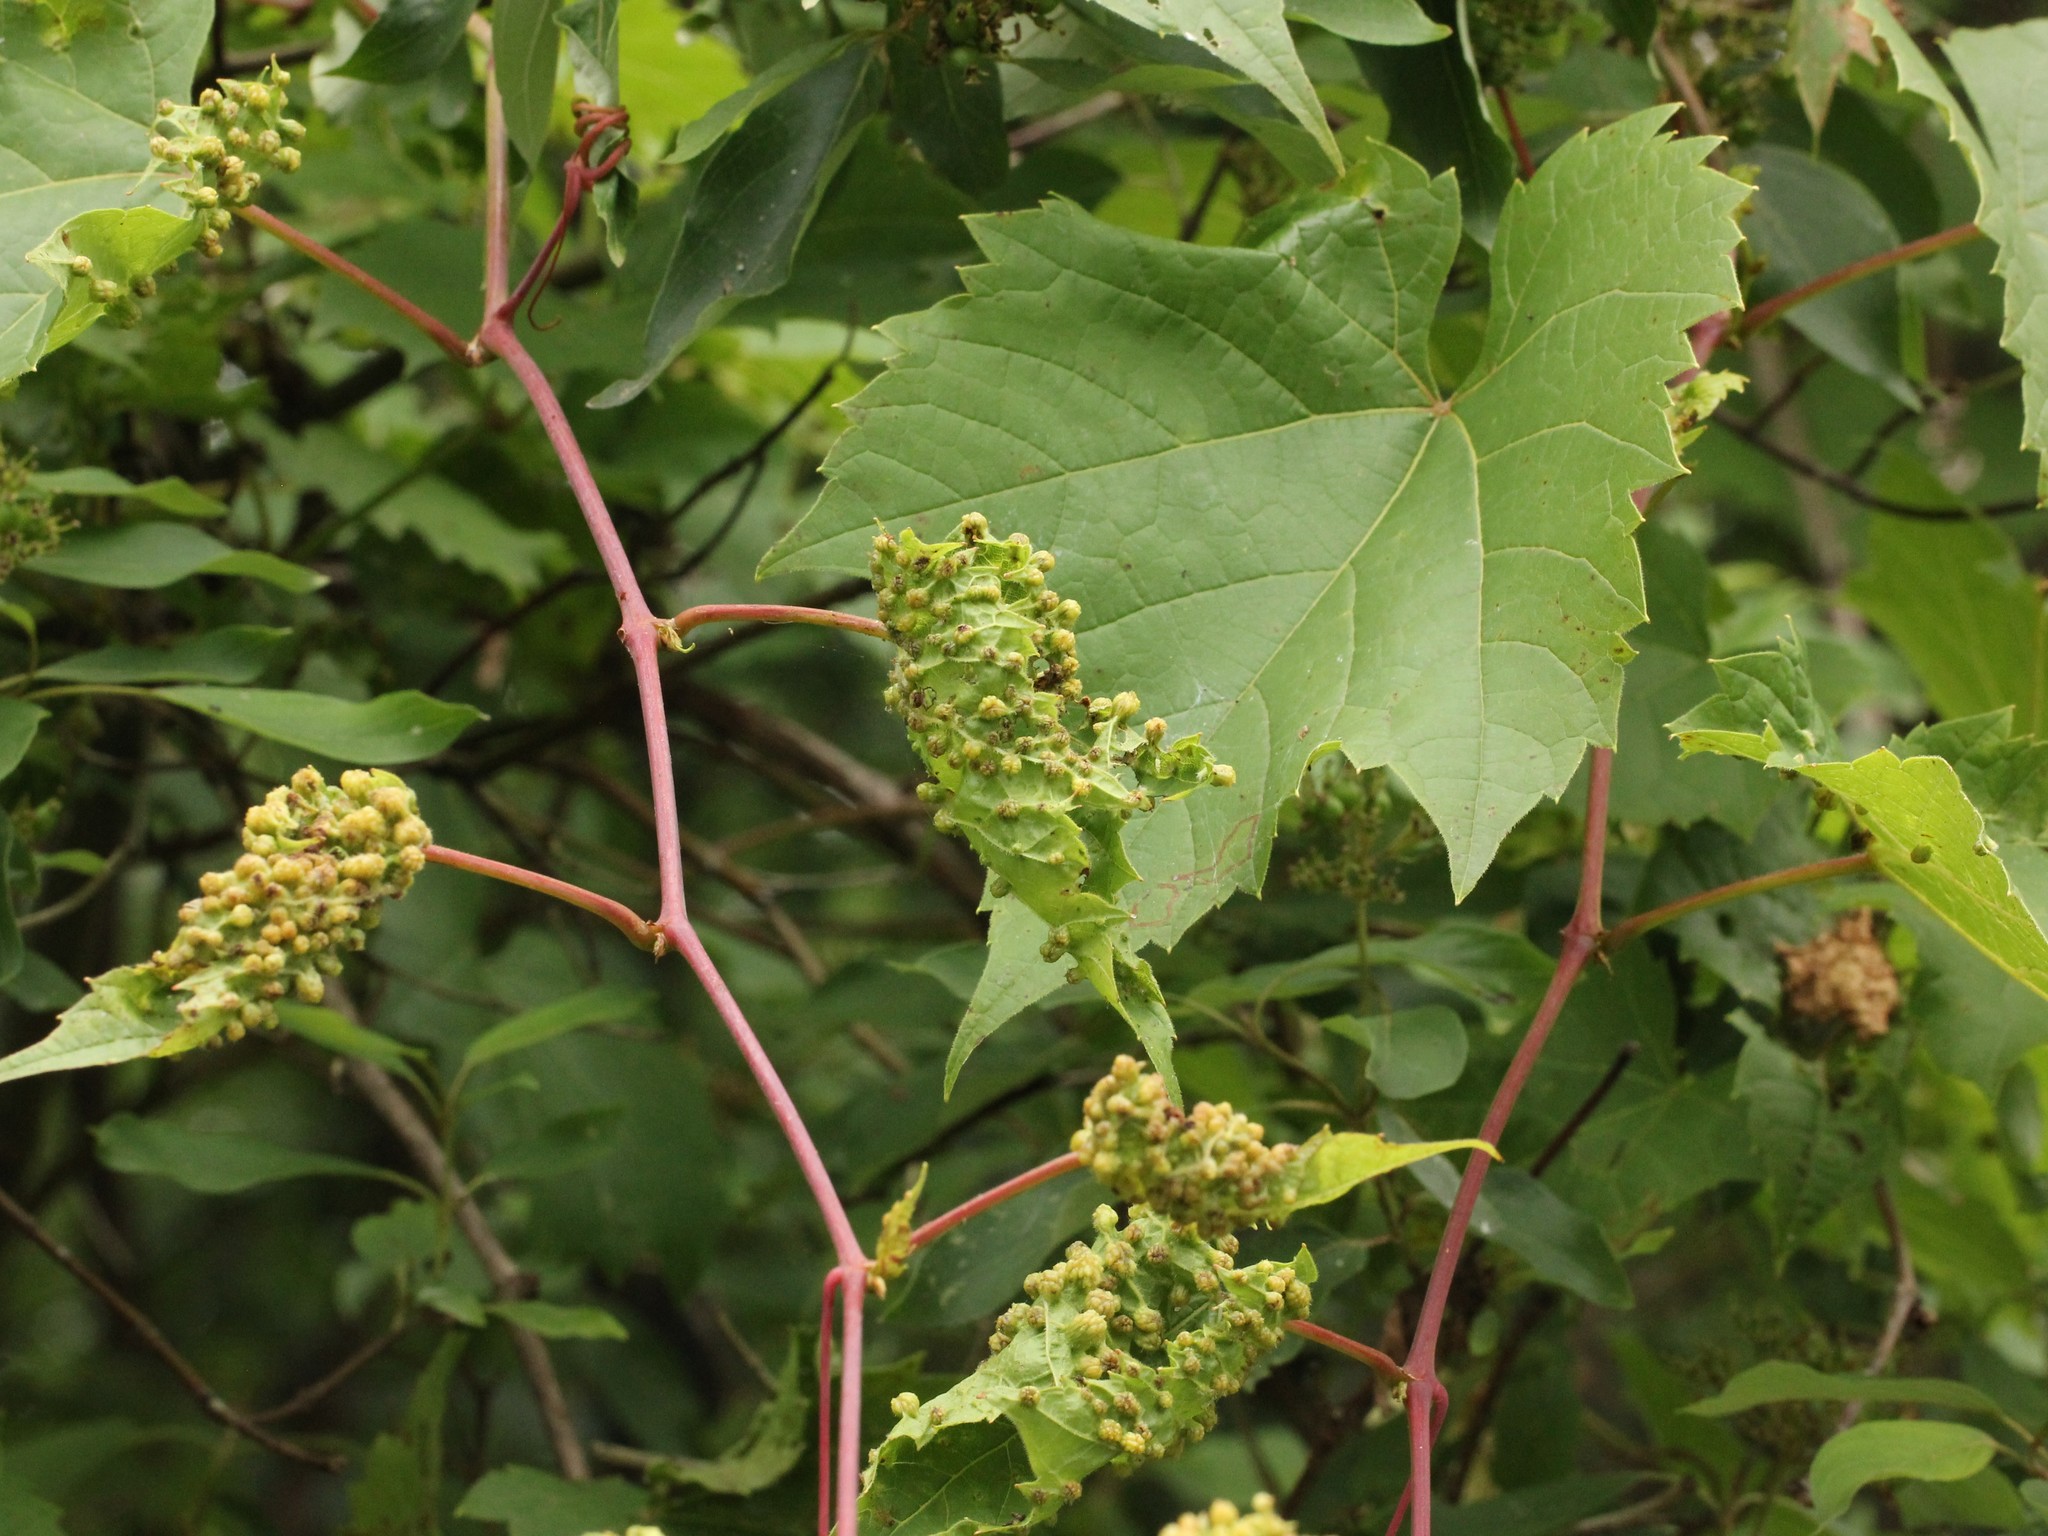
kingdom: Animalia
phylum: Arthropoda
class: Insecta
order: Hemiptera
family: Phylloxeridae
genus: Daktulosphaira
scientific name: Daktulosphaira vitifoliae
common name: Grape phylloxera
